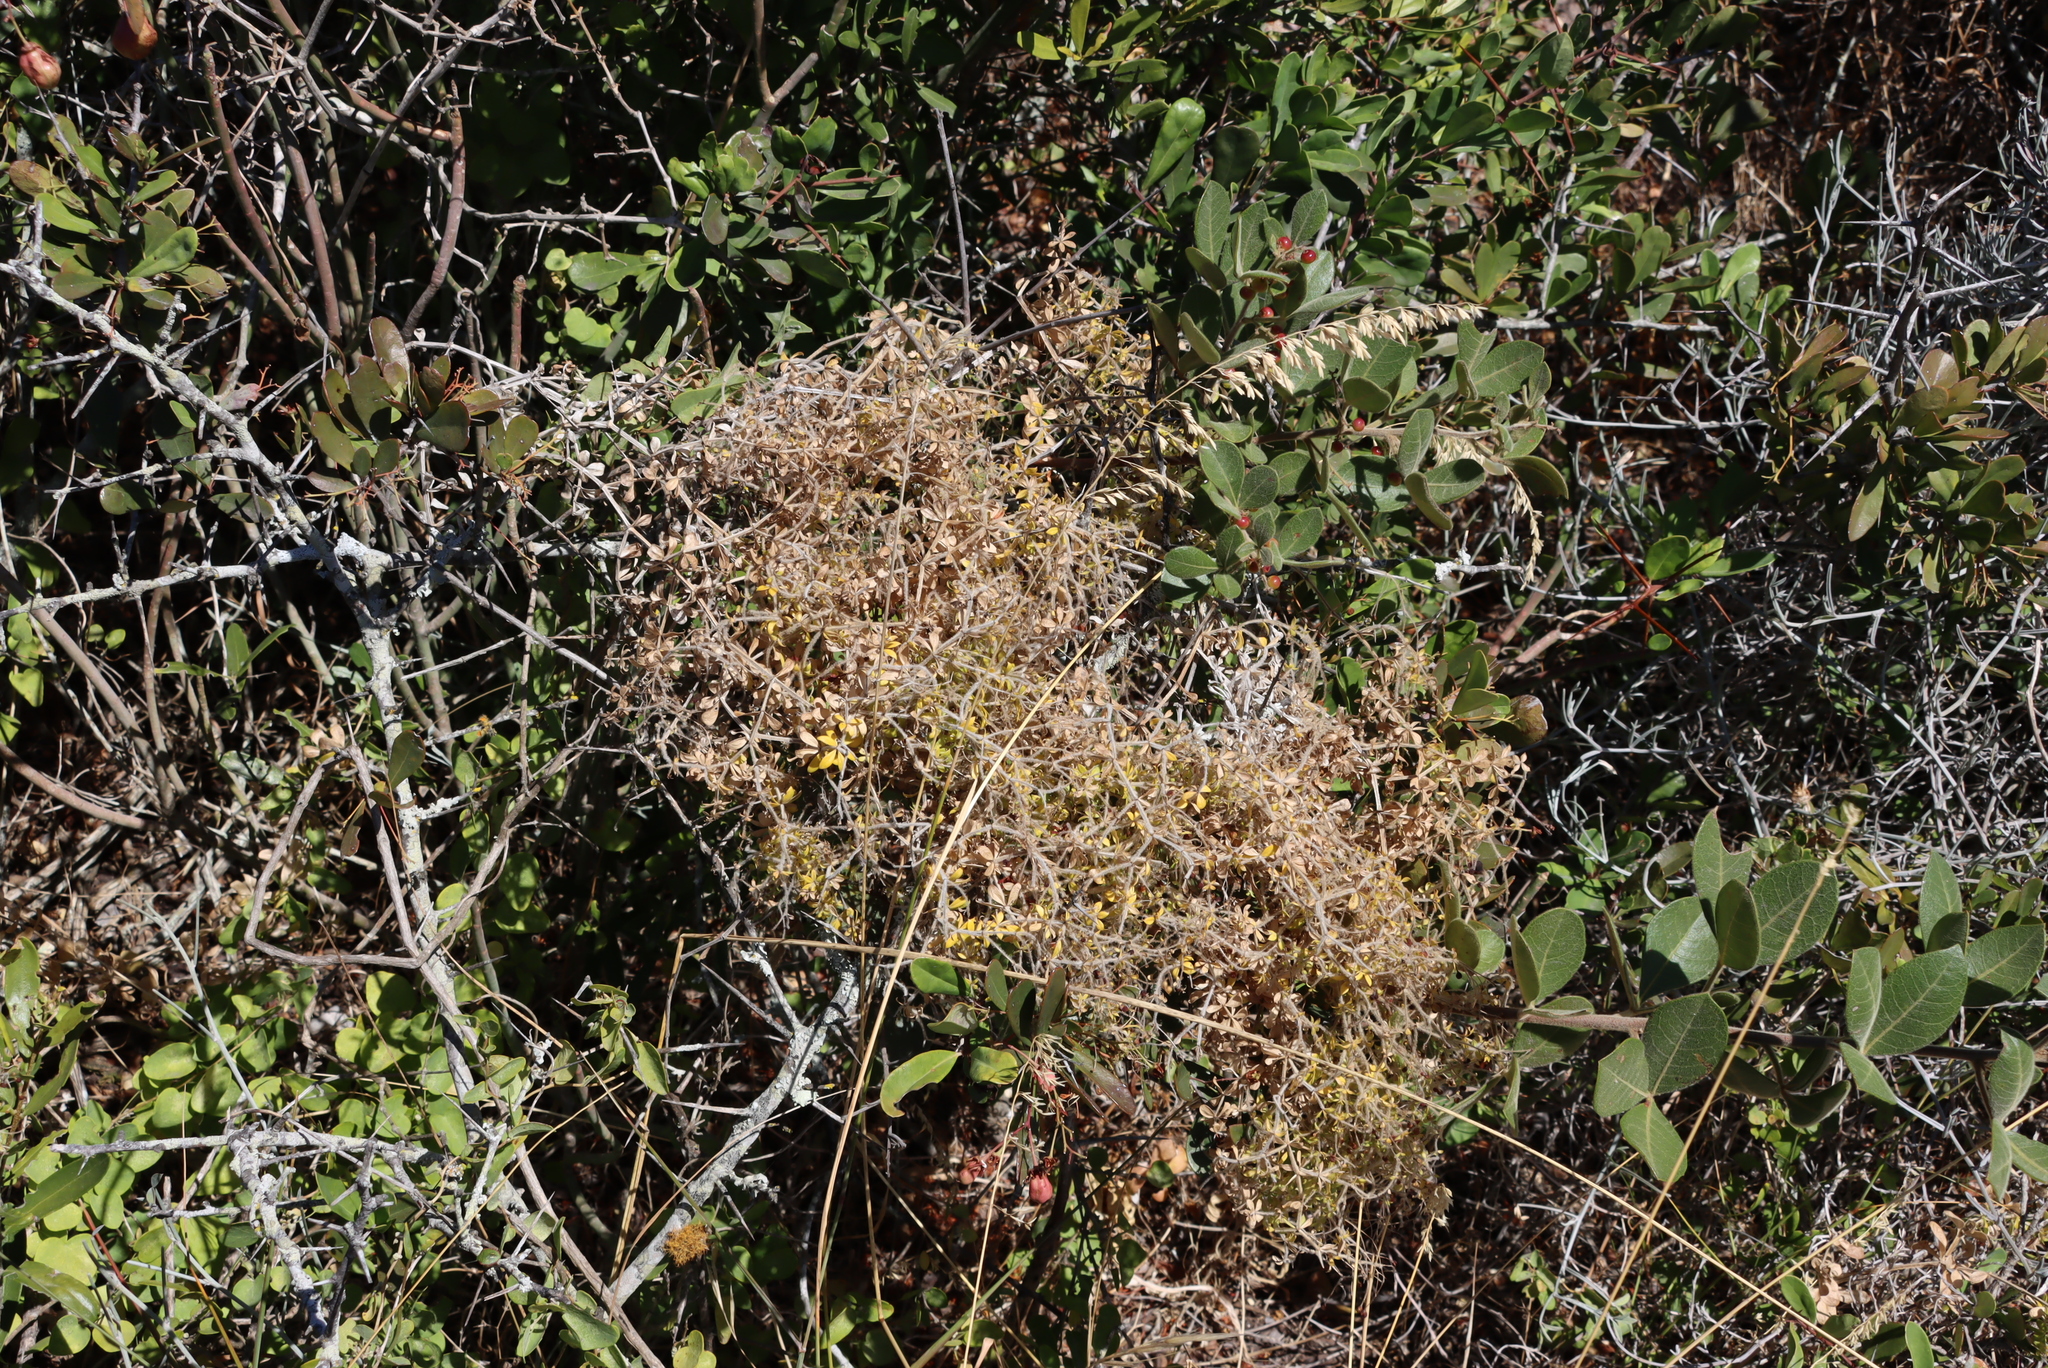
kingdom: Plantae
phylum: Tracheophyta
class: Magnoliopsida
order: Gentianales
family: Rubiaceae
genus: Galium
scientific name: Galium tomentosum
